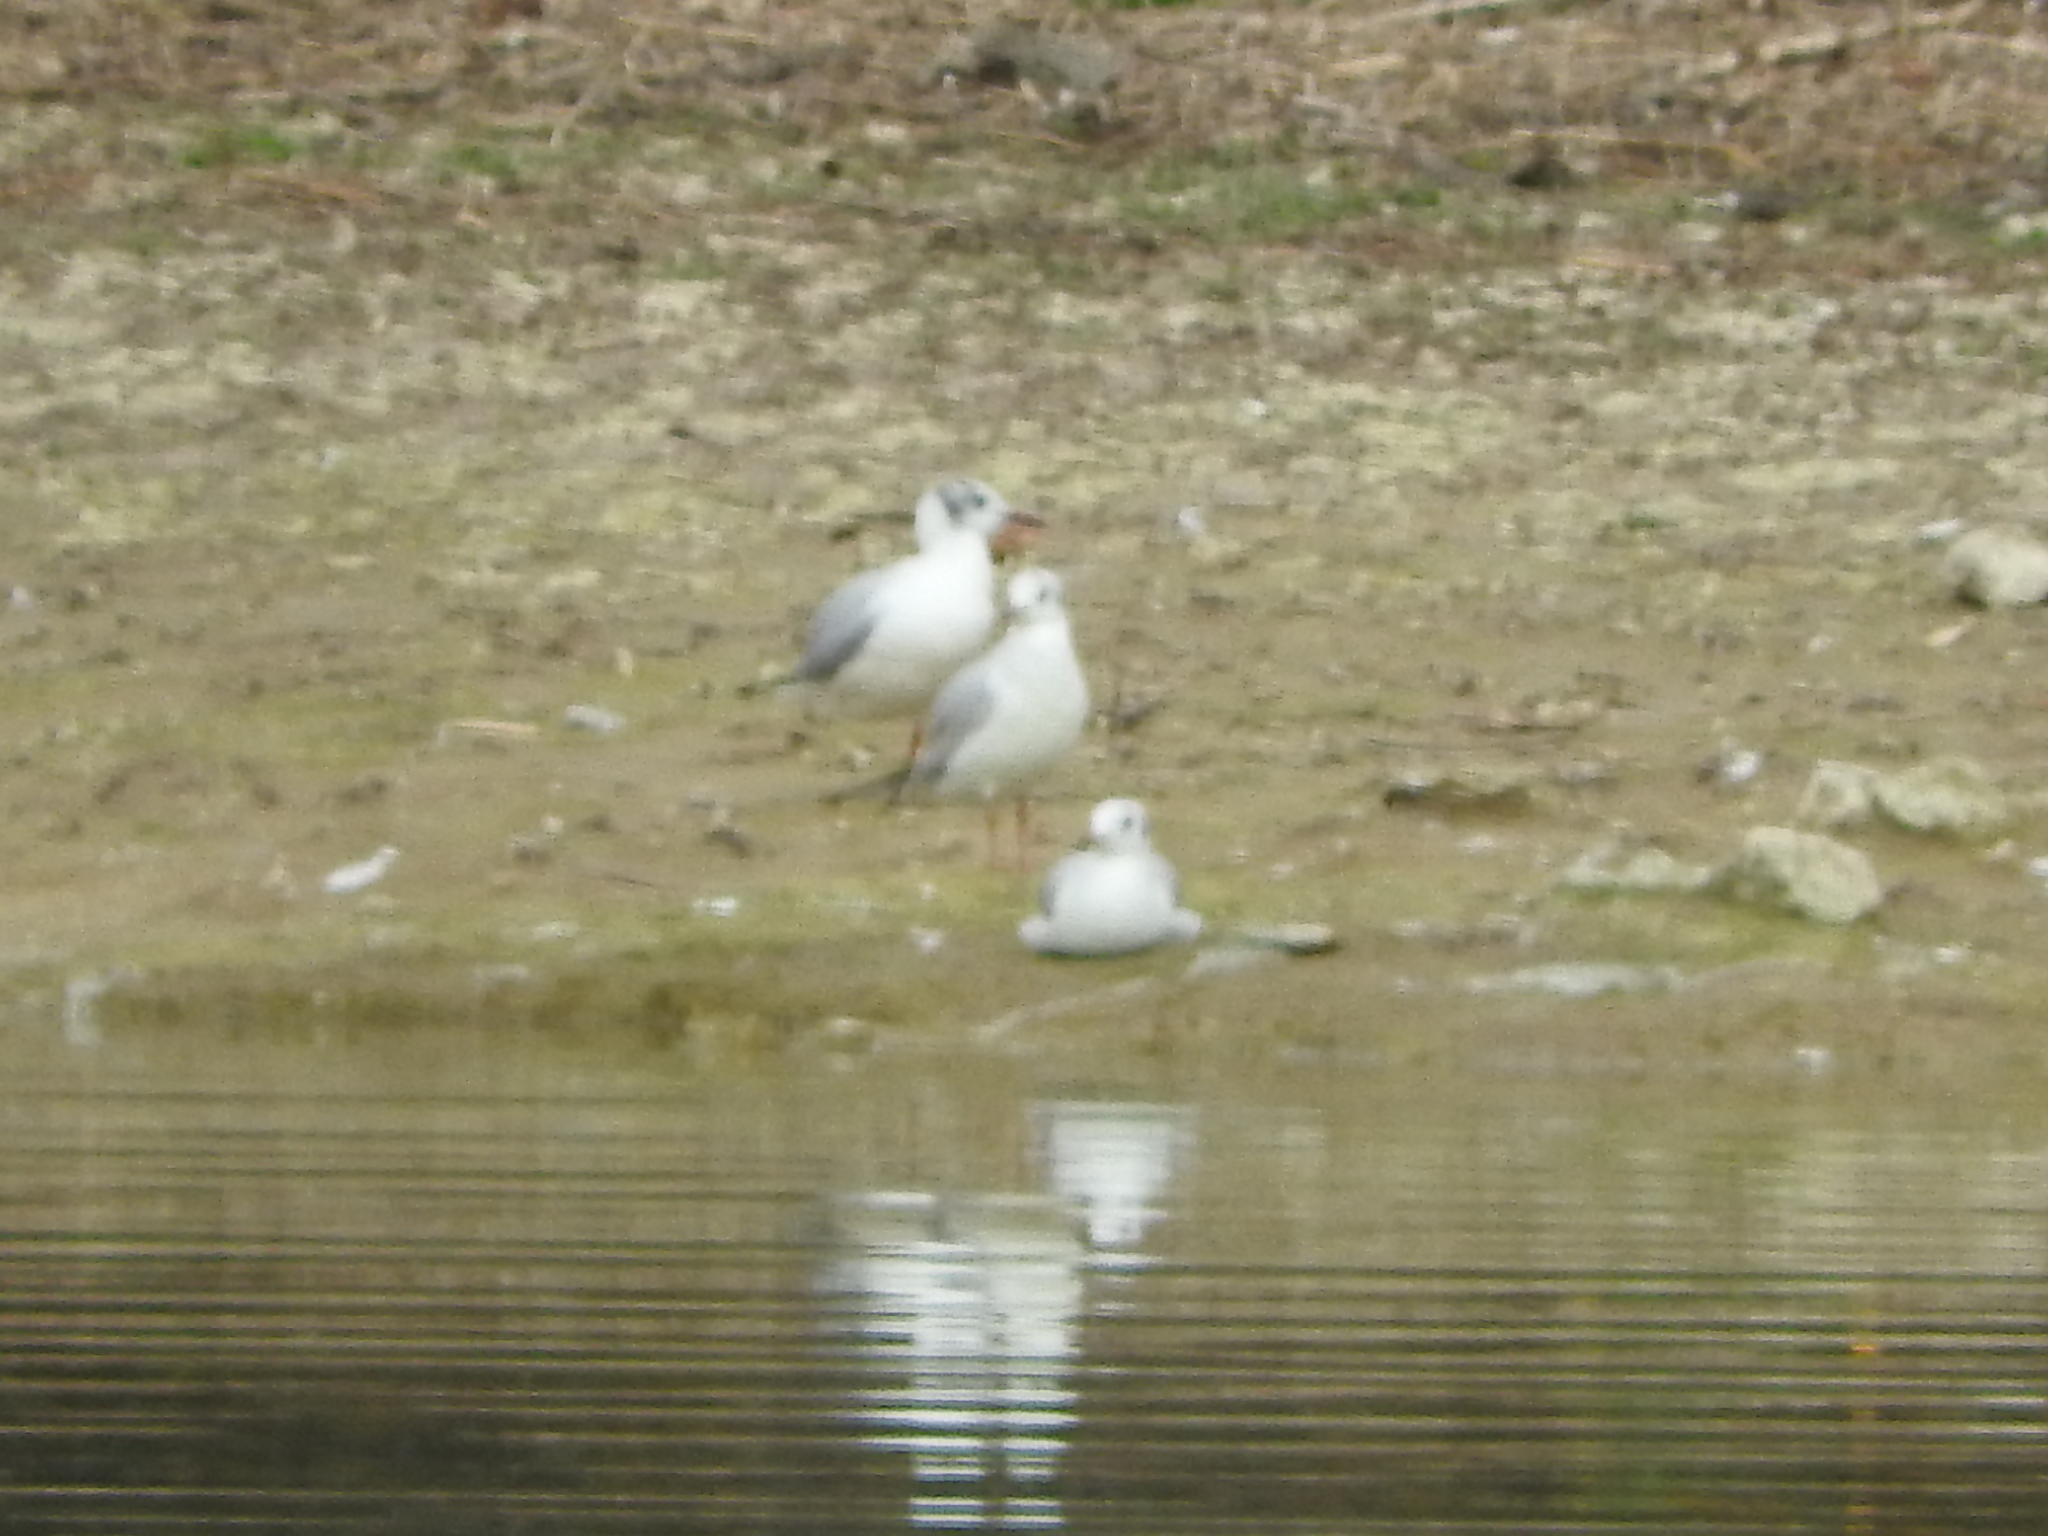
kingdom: Animalia
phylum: Chordata
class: Aves
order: Charadriiformes
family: Laridae
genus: Chroicocephalus
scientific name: Chroicocephalus ridibundus
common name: Black-headed gull
